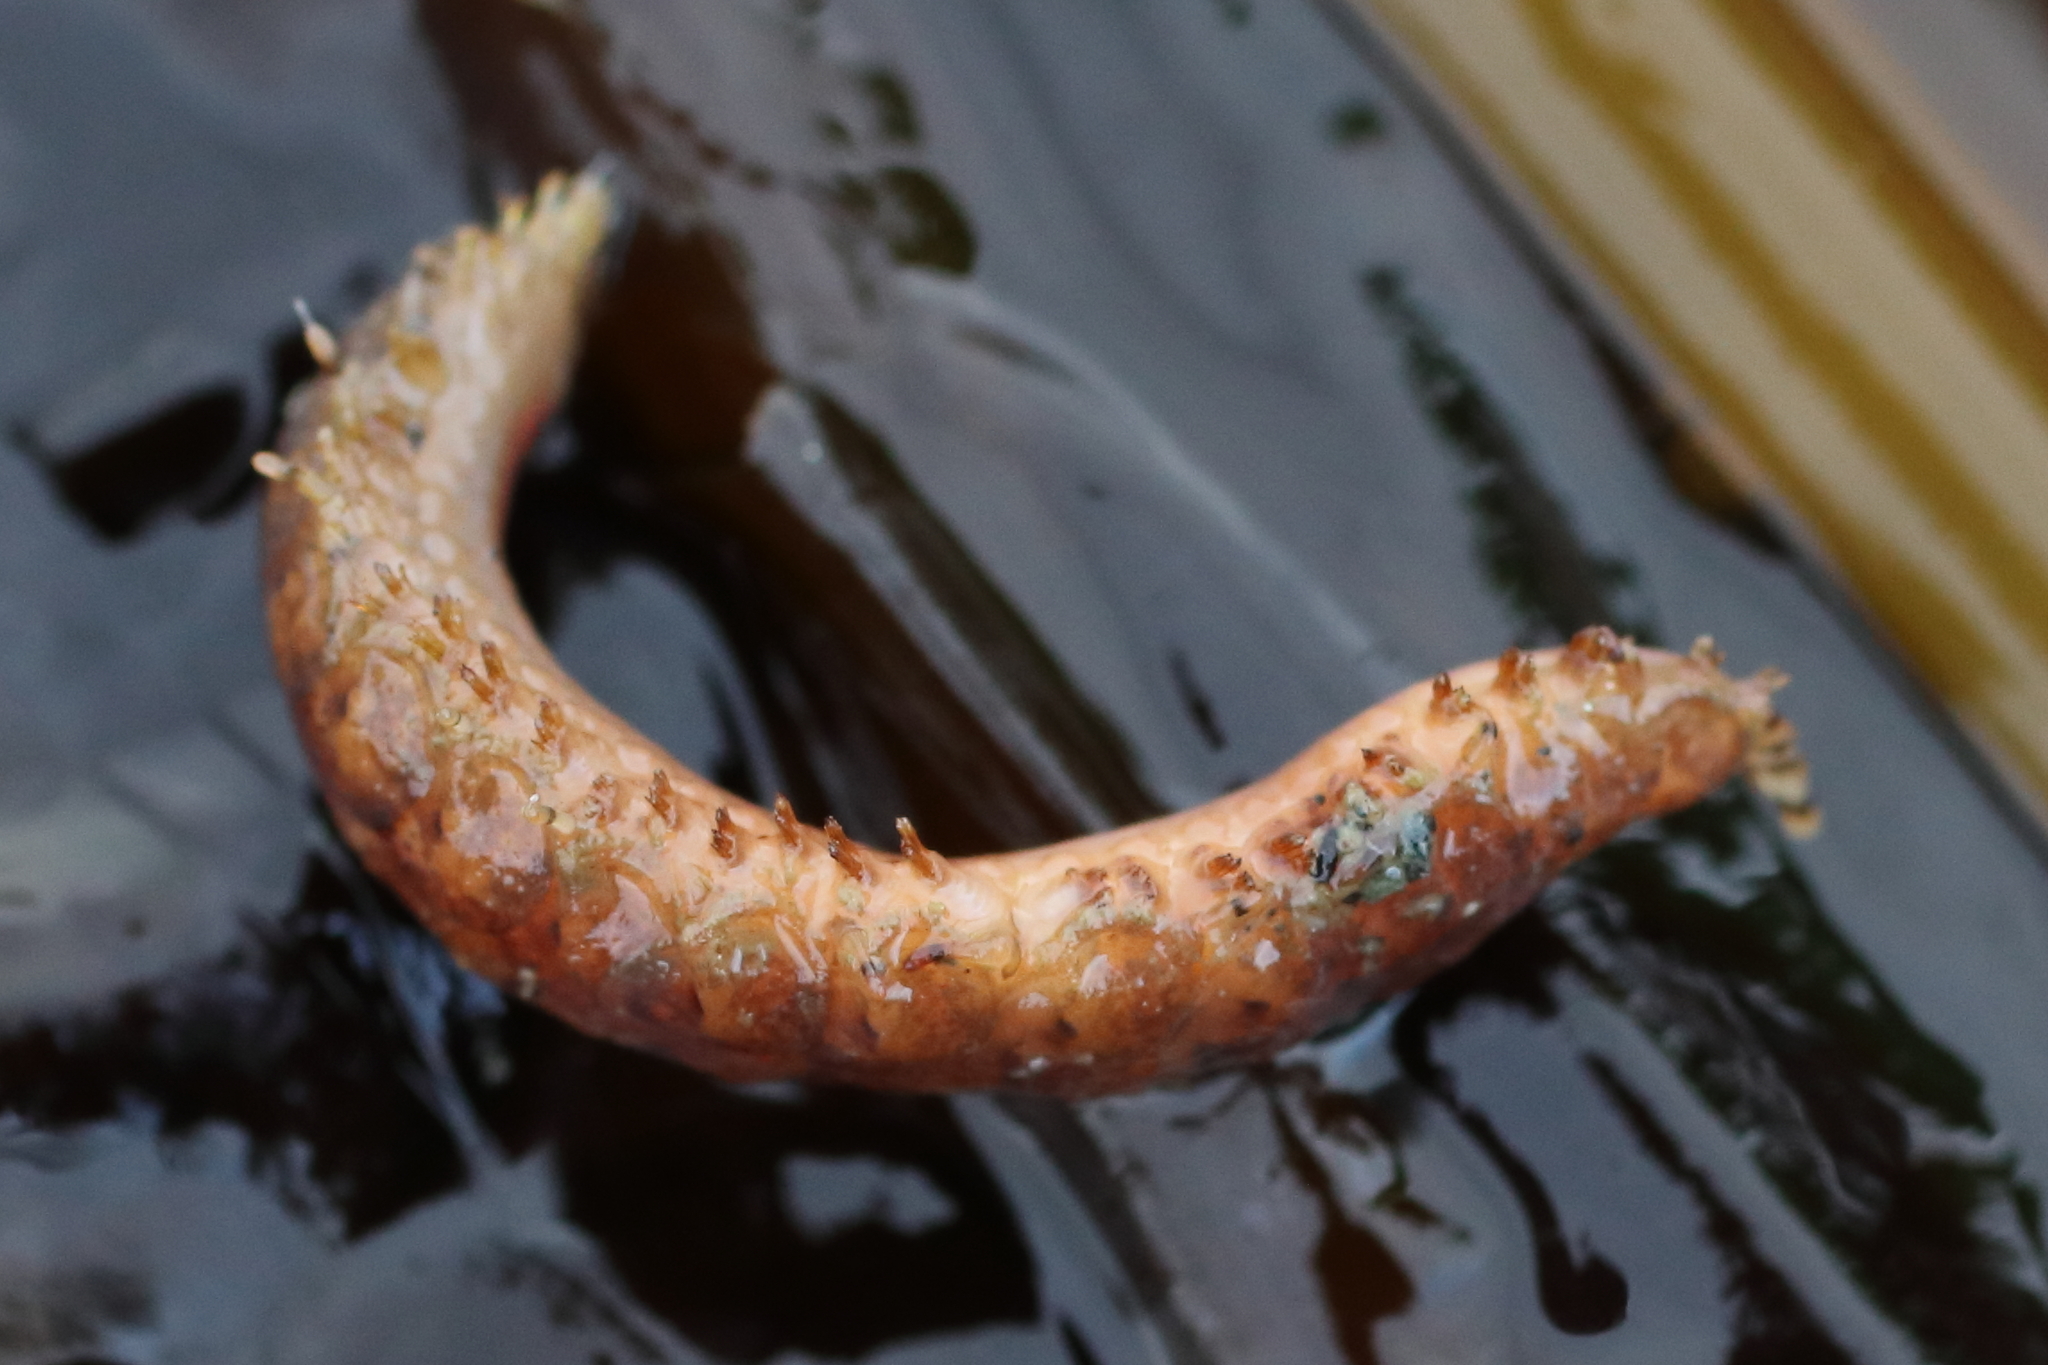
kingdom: Animalia
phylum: Annelida
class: Polychaeta
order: Phyllodocida
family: Polynoidae
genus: Halosydna
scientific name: Halosydna brevisetosa
